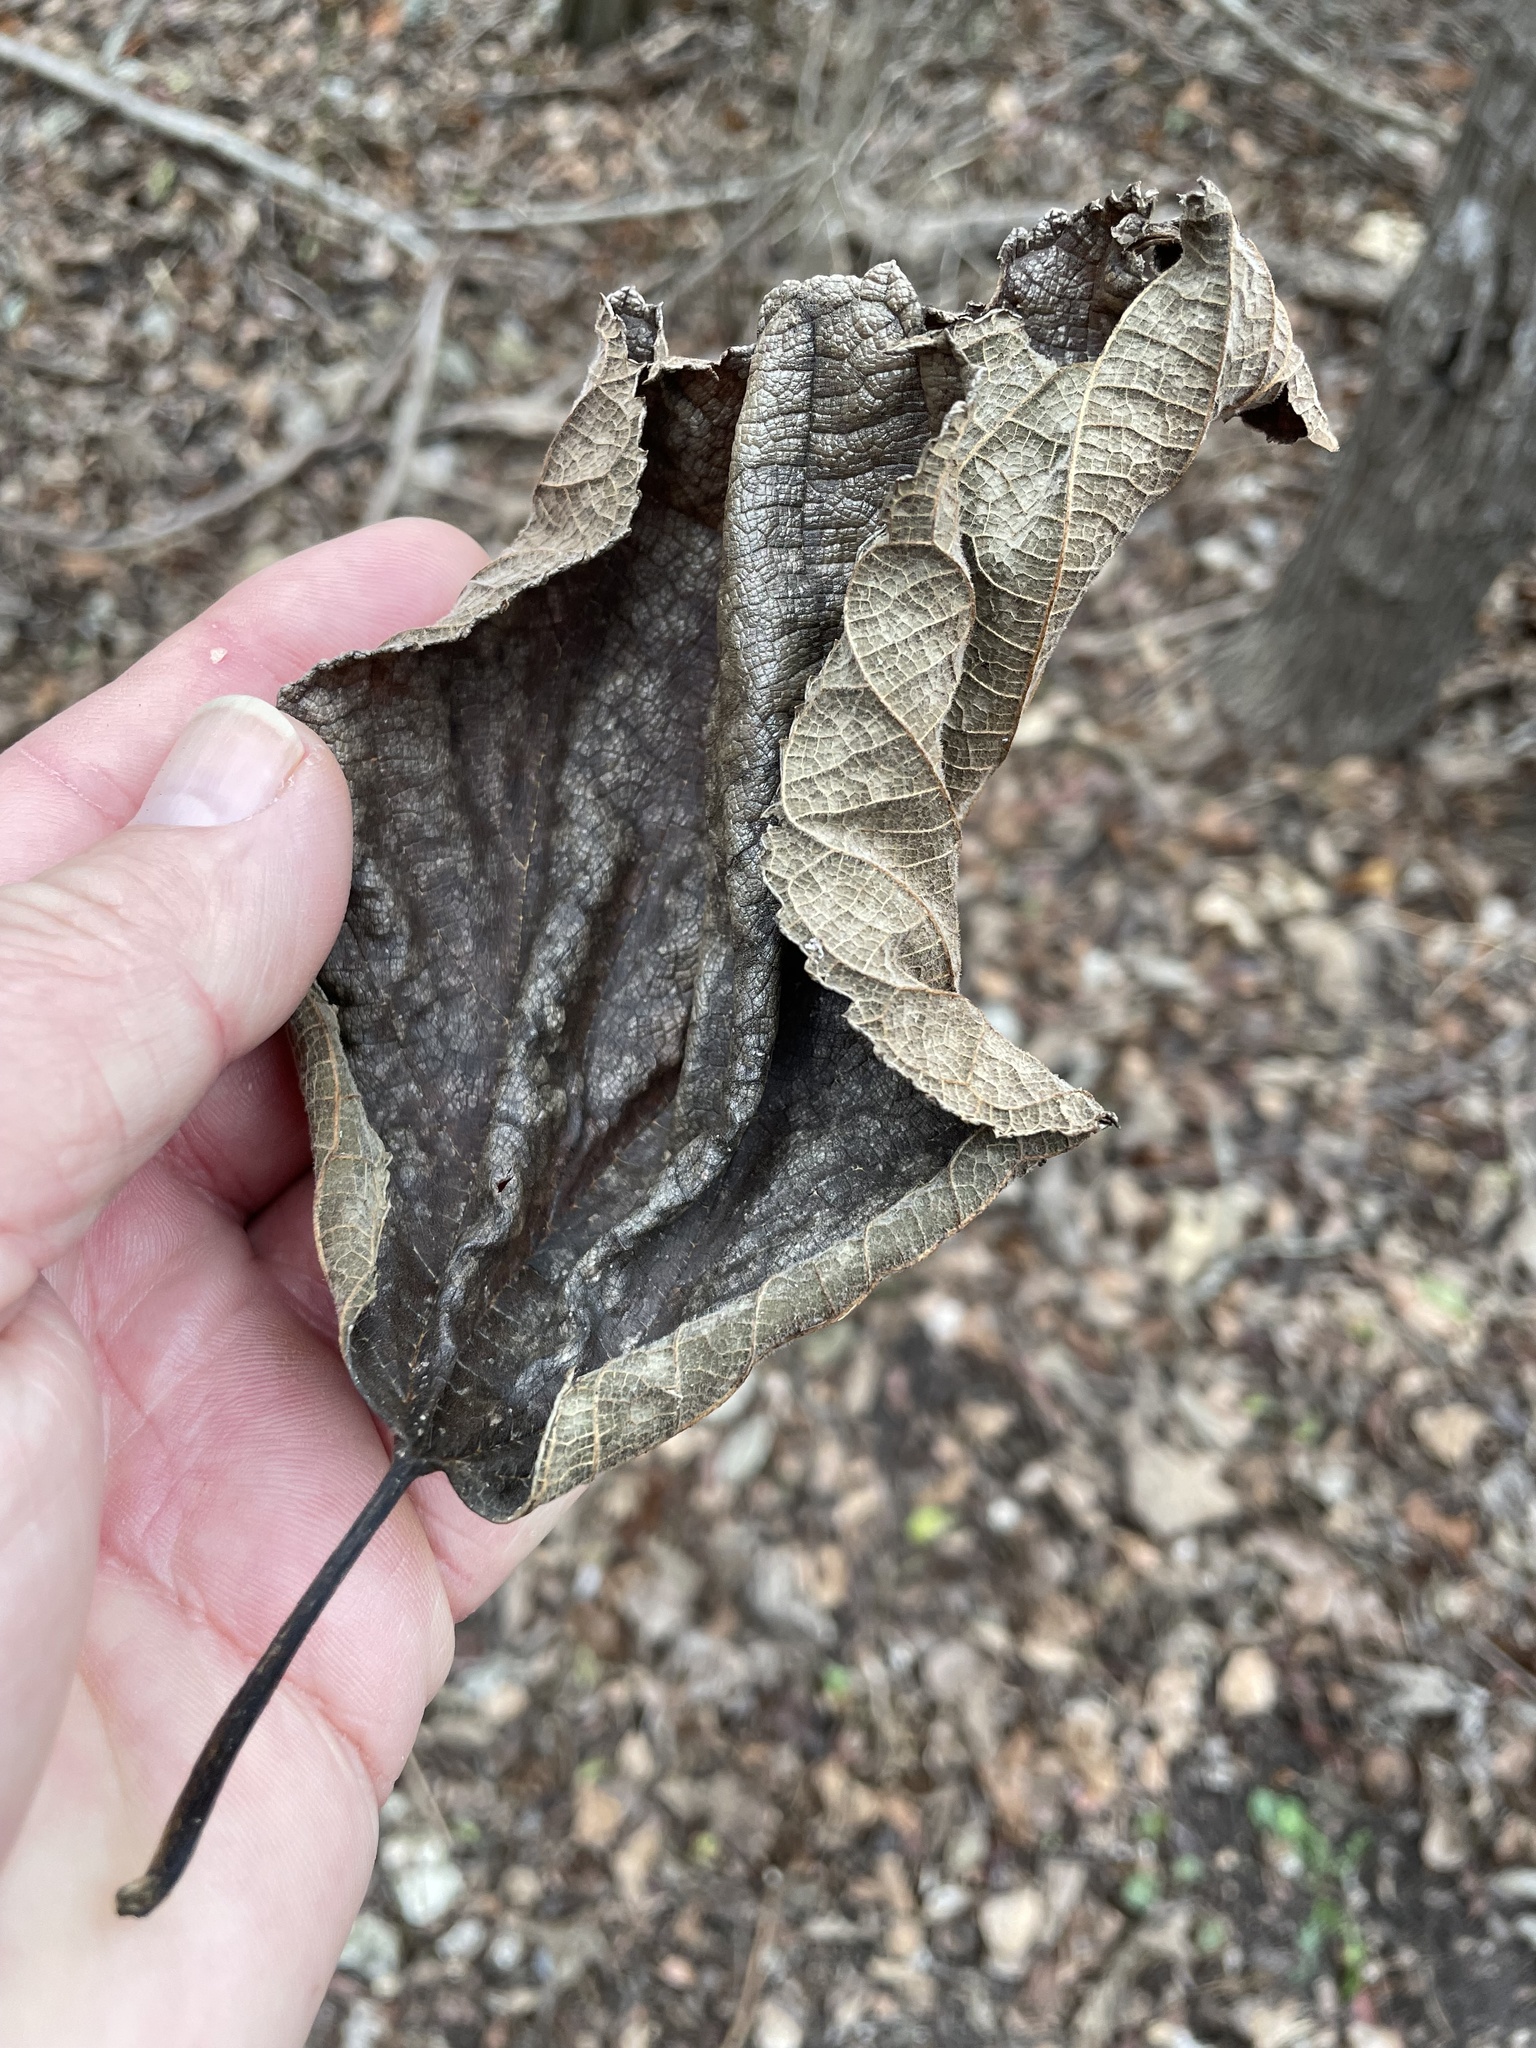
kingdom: Plantae
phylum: Tracheophyta
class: Magnoliopsida
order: Rosales
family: Moraceae
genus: Morus
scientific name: Morus rubra
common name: Red mulberry
